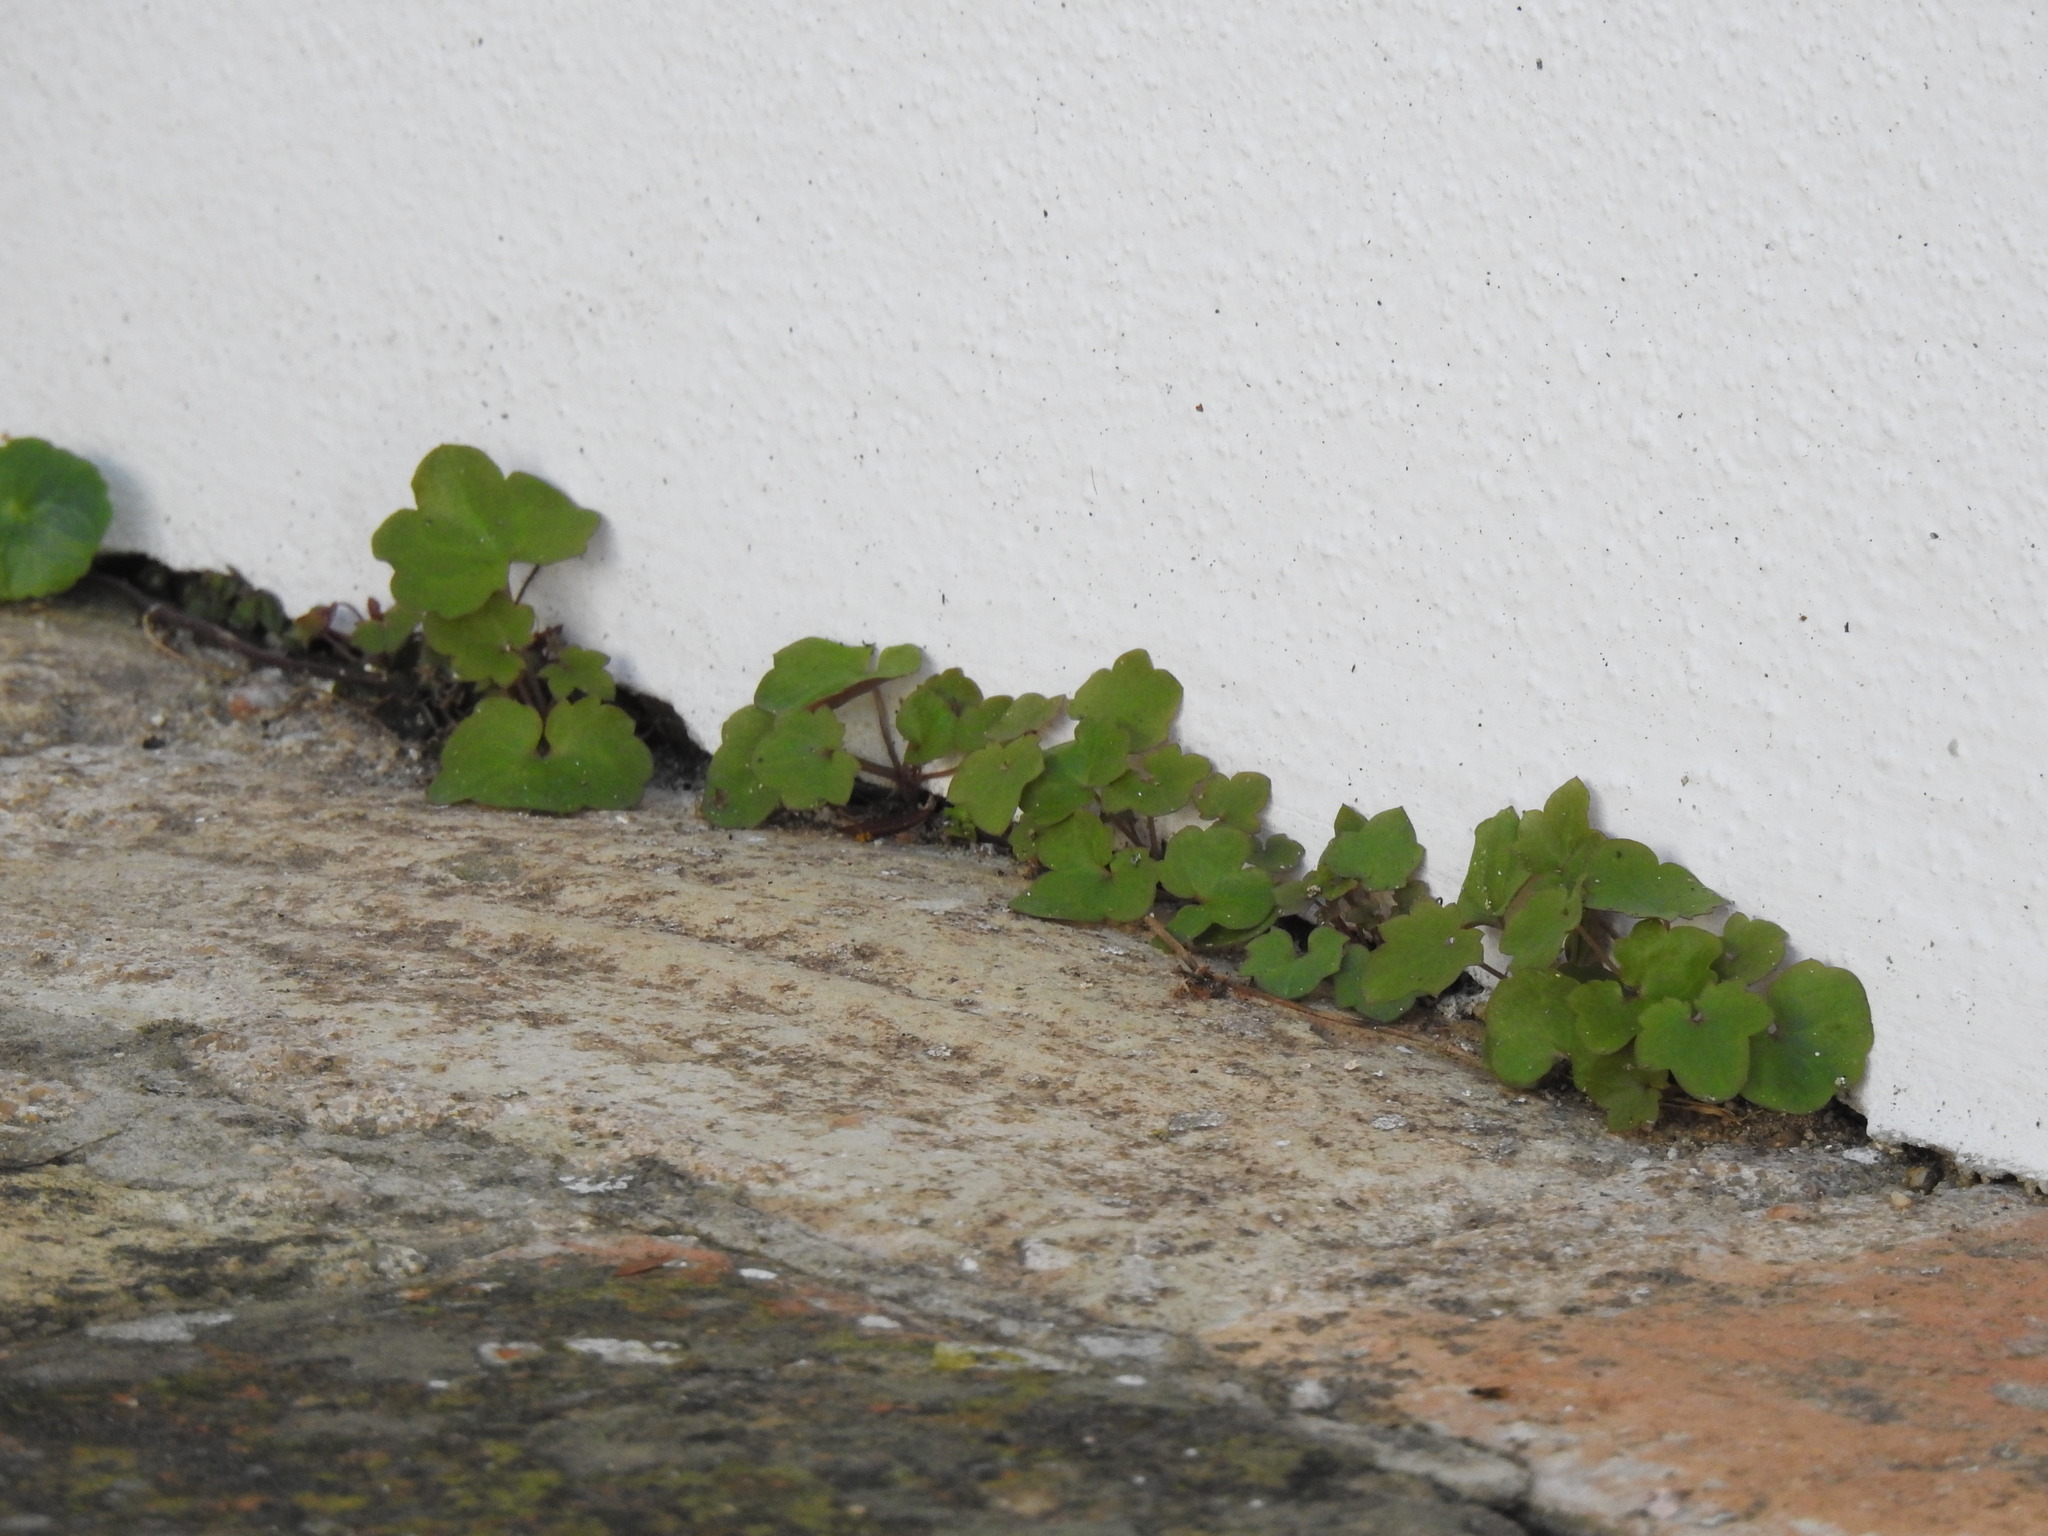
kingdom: Plantae
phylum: Tracheophyta
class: Magnoliopsida
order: Lamiales
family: Plantaginaceae
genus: Cymbalaria
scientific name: Cymbalaria muralis
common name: Ivy-leaved toadflax
